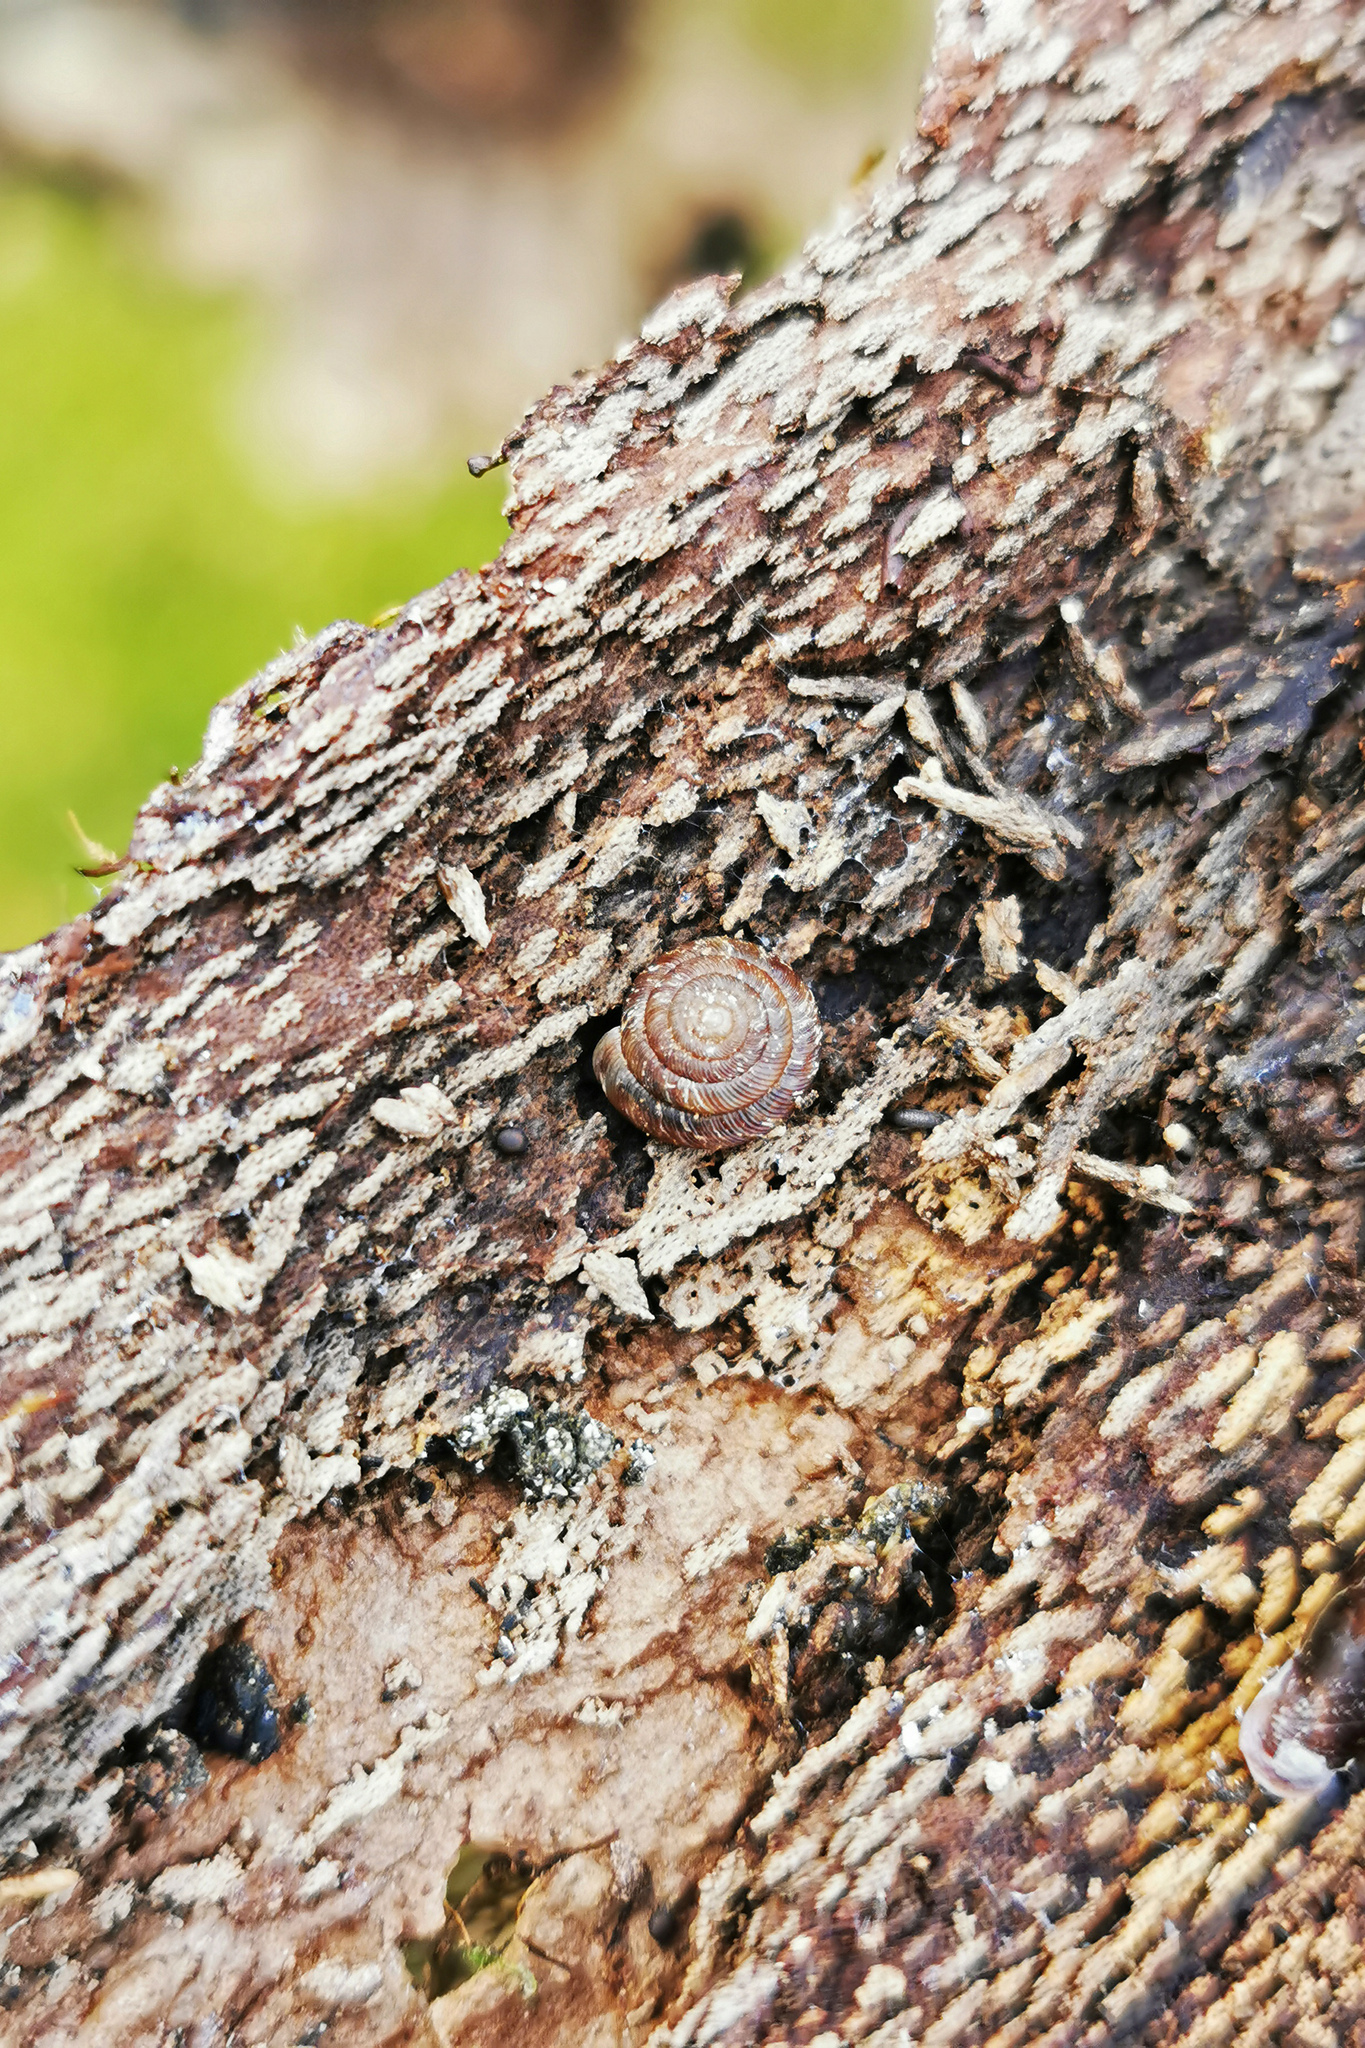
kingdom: Animalia
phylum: Mollusca
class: Gastropoda
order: Stylommatophora
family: Discidae
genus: Discus
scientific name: Discus rotundatus
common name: Rounded snail
